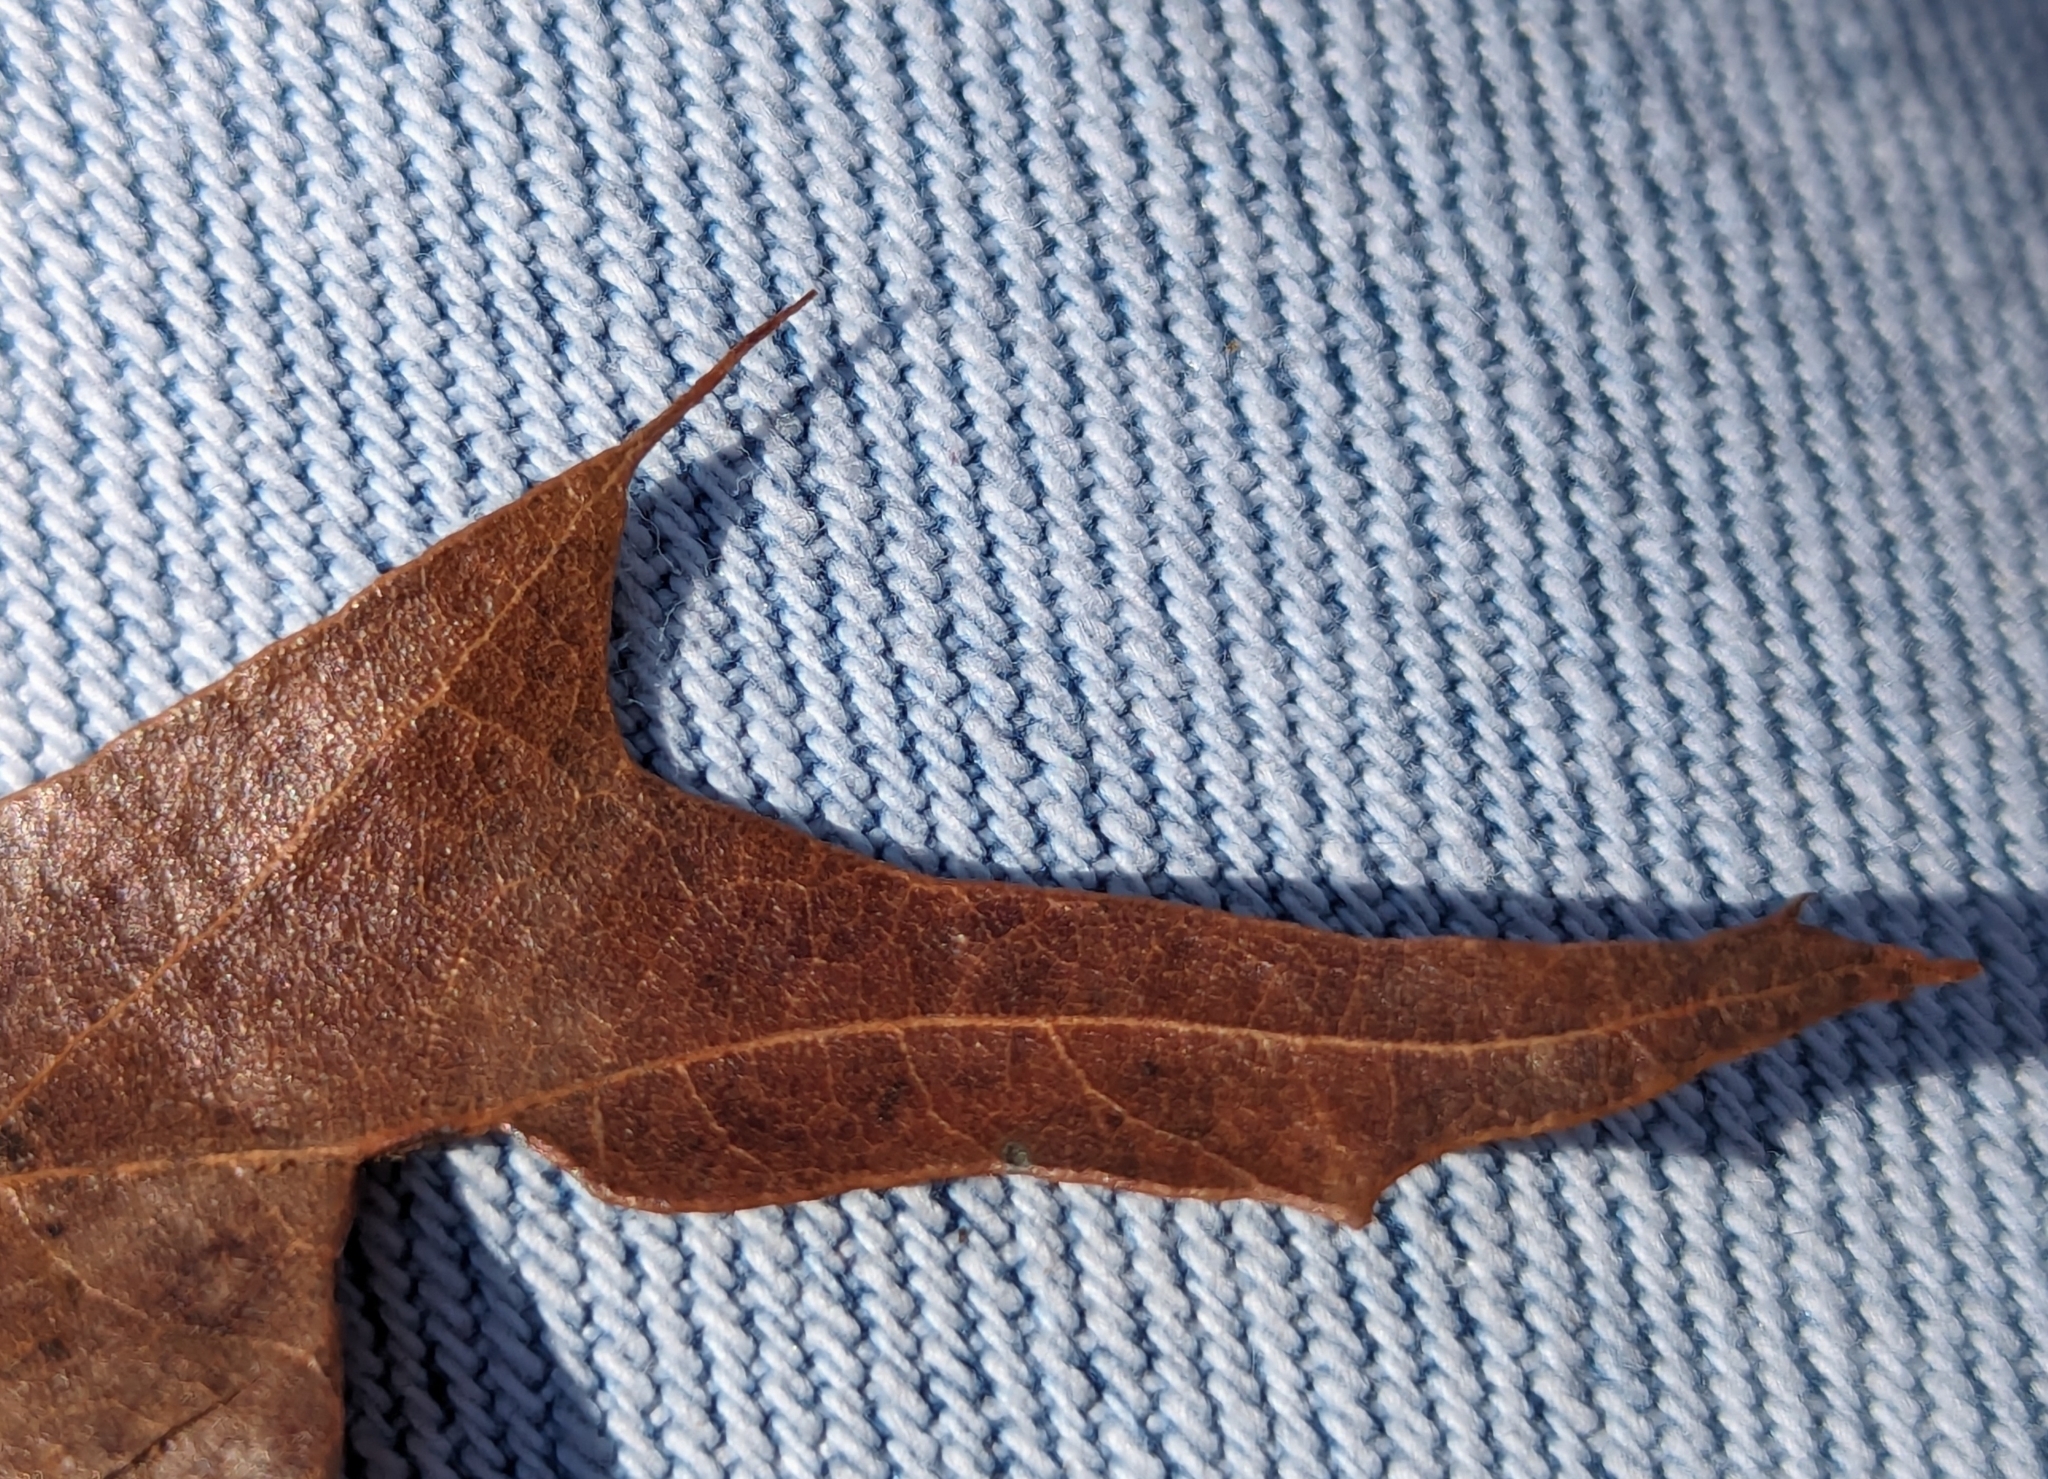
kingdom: Plantae
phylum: Tracheophyta
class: Magnoliopsida
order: Fagales
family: Fagaceae
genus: Quercus
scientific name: Quercus falcata
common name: Southern red oak
